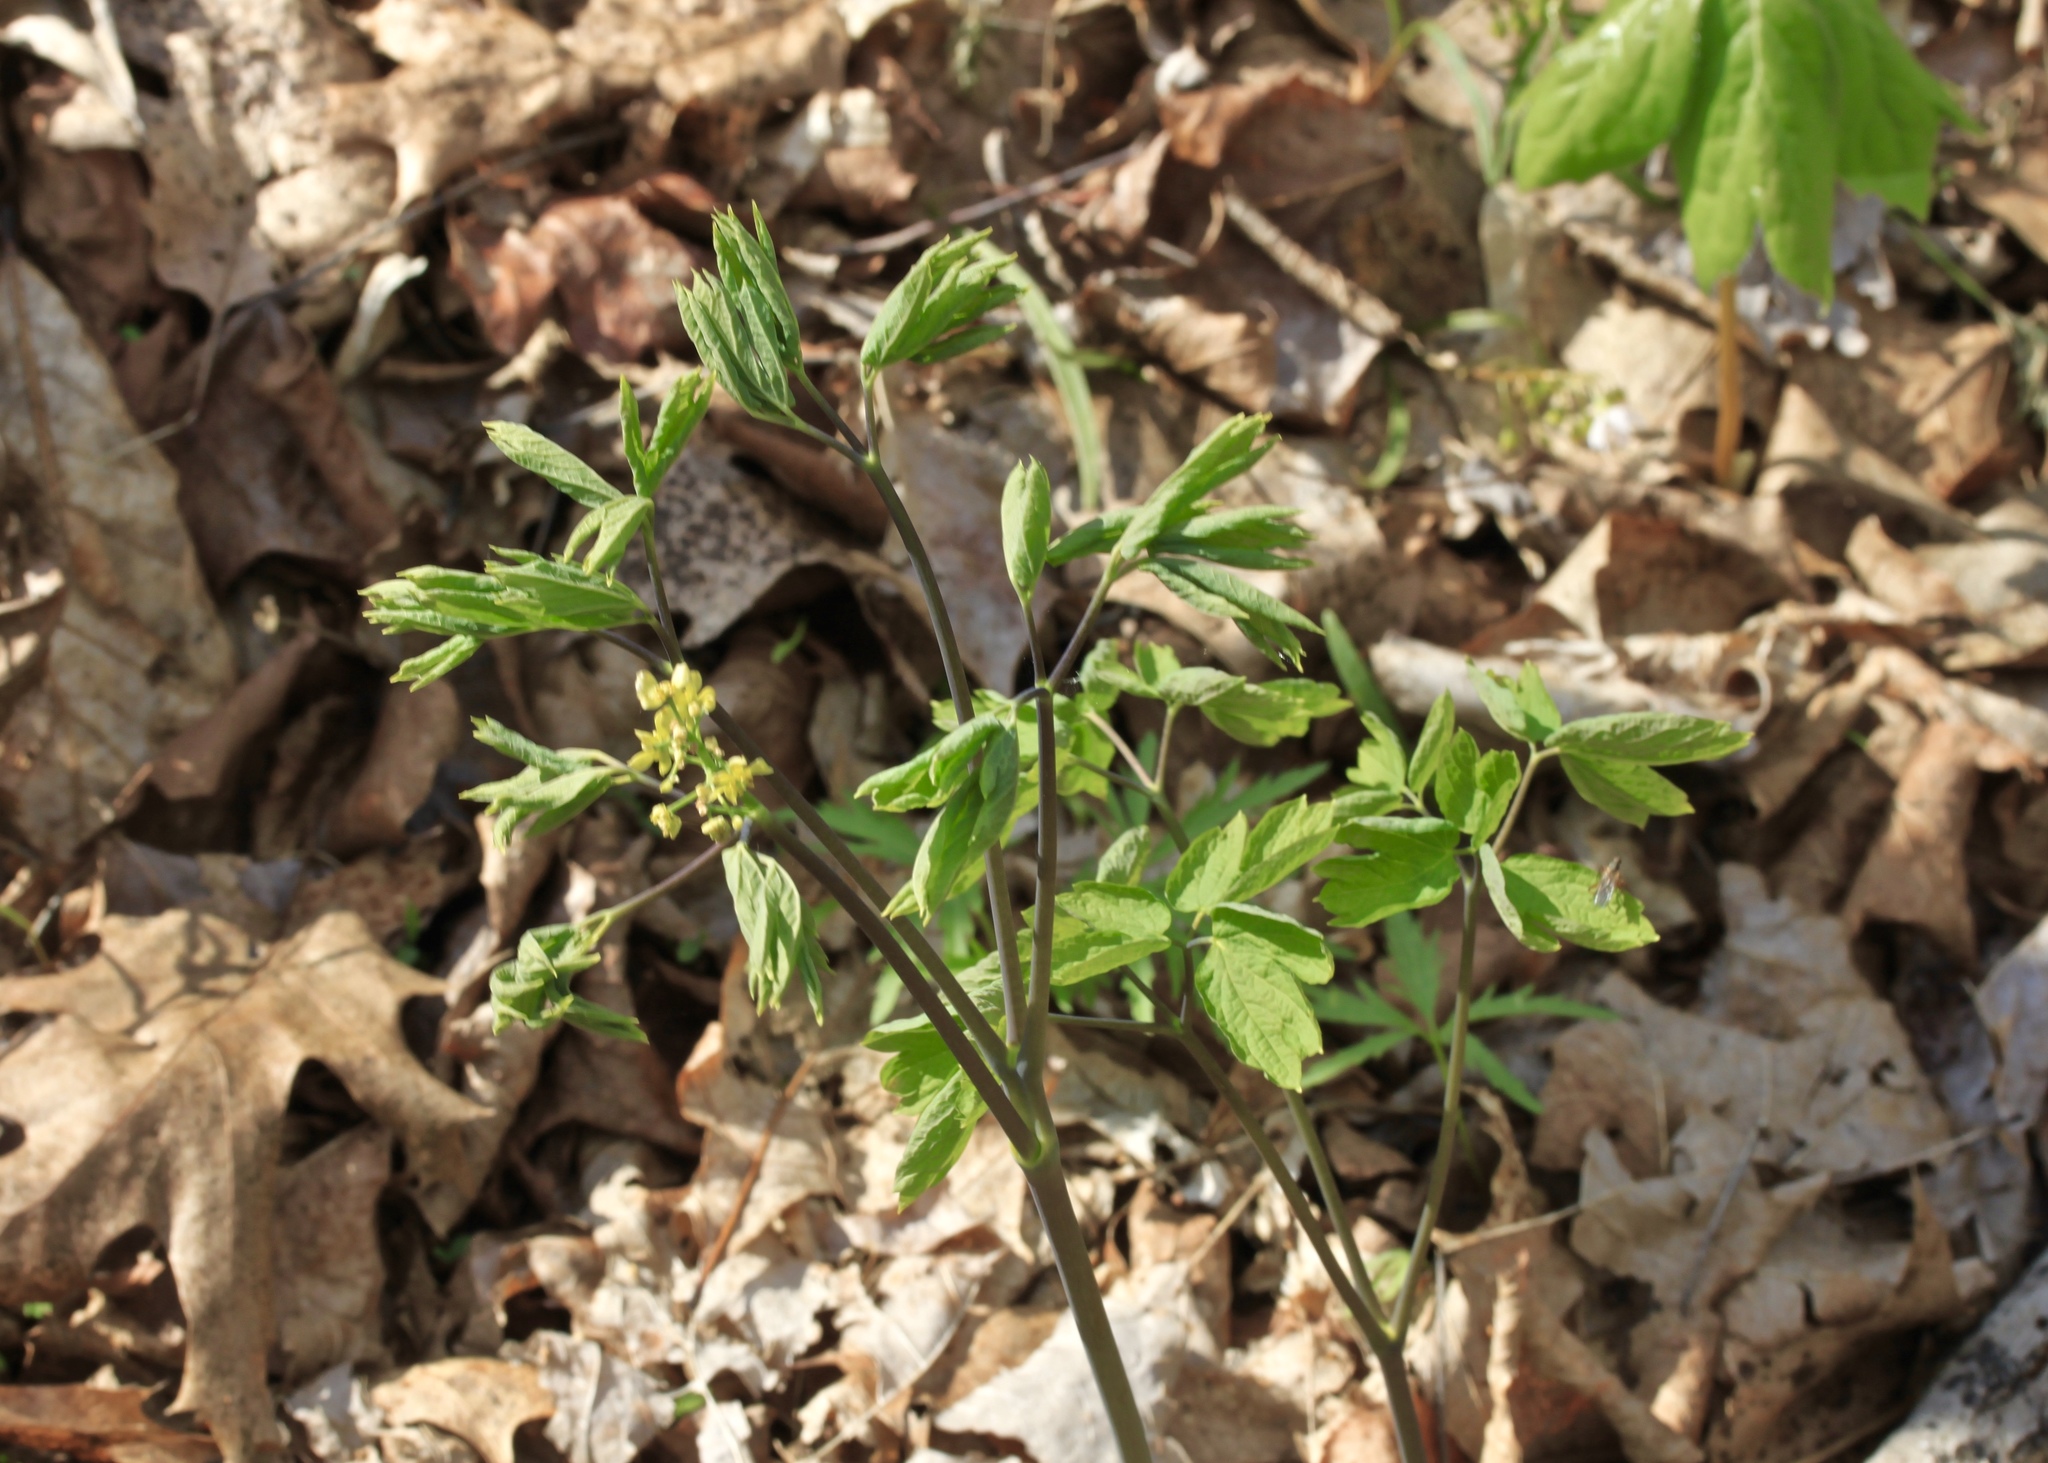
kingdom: Plantae
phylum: Tracheophyta
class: Magnoliopsida
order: Ranunculales
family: Berberidaceae
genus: Caulophyllum
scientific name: Caulophyllum thalictroides
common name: Blue cohosh
